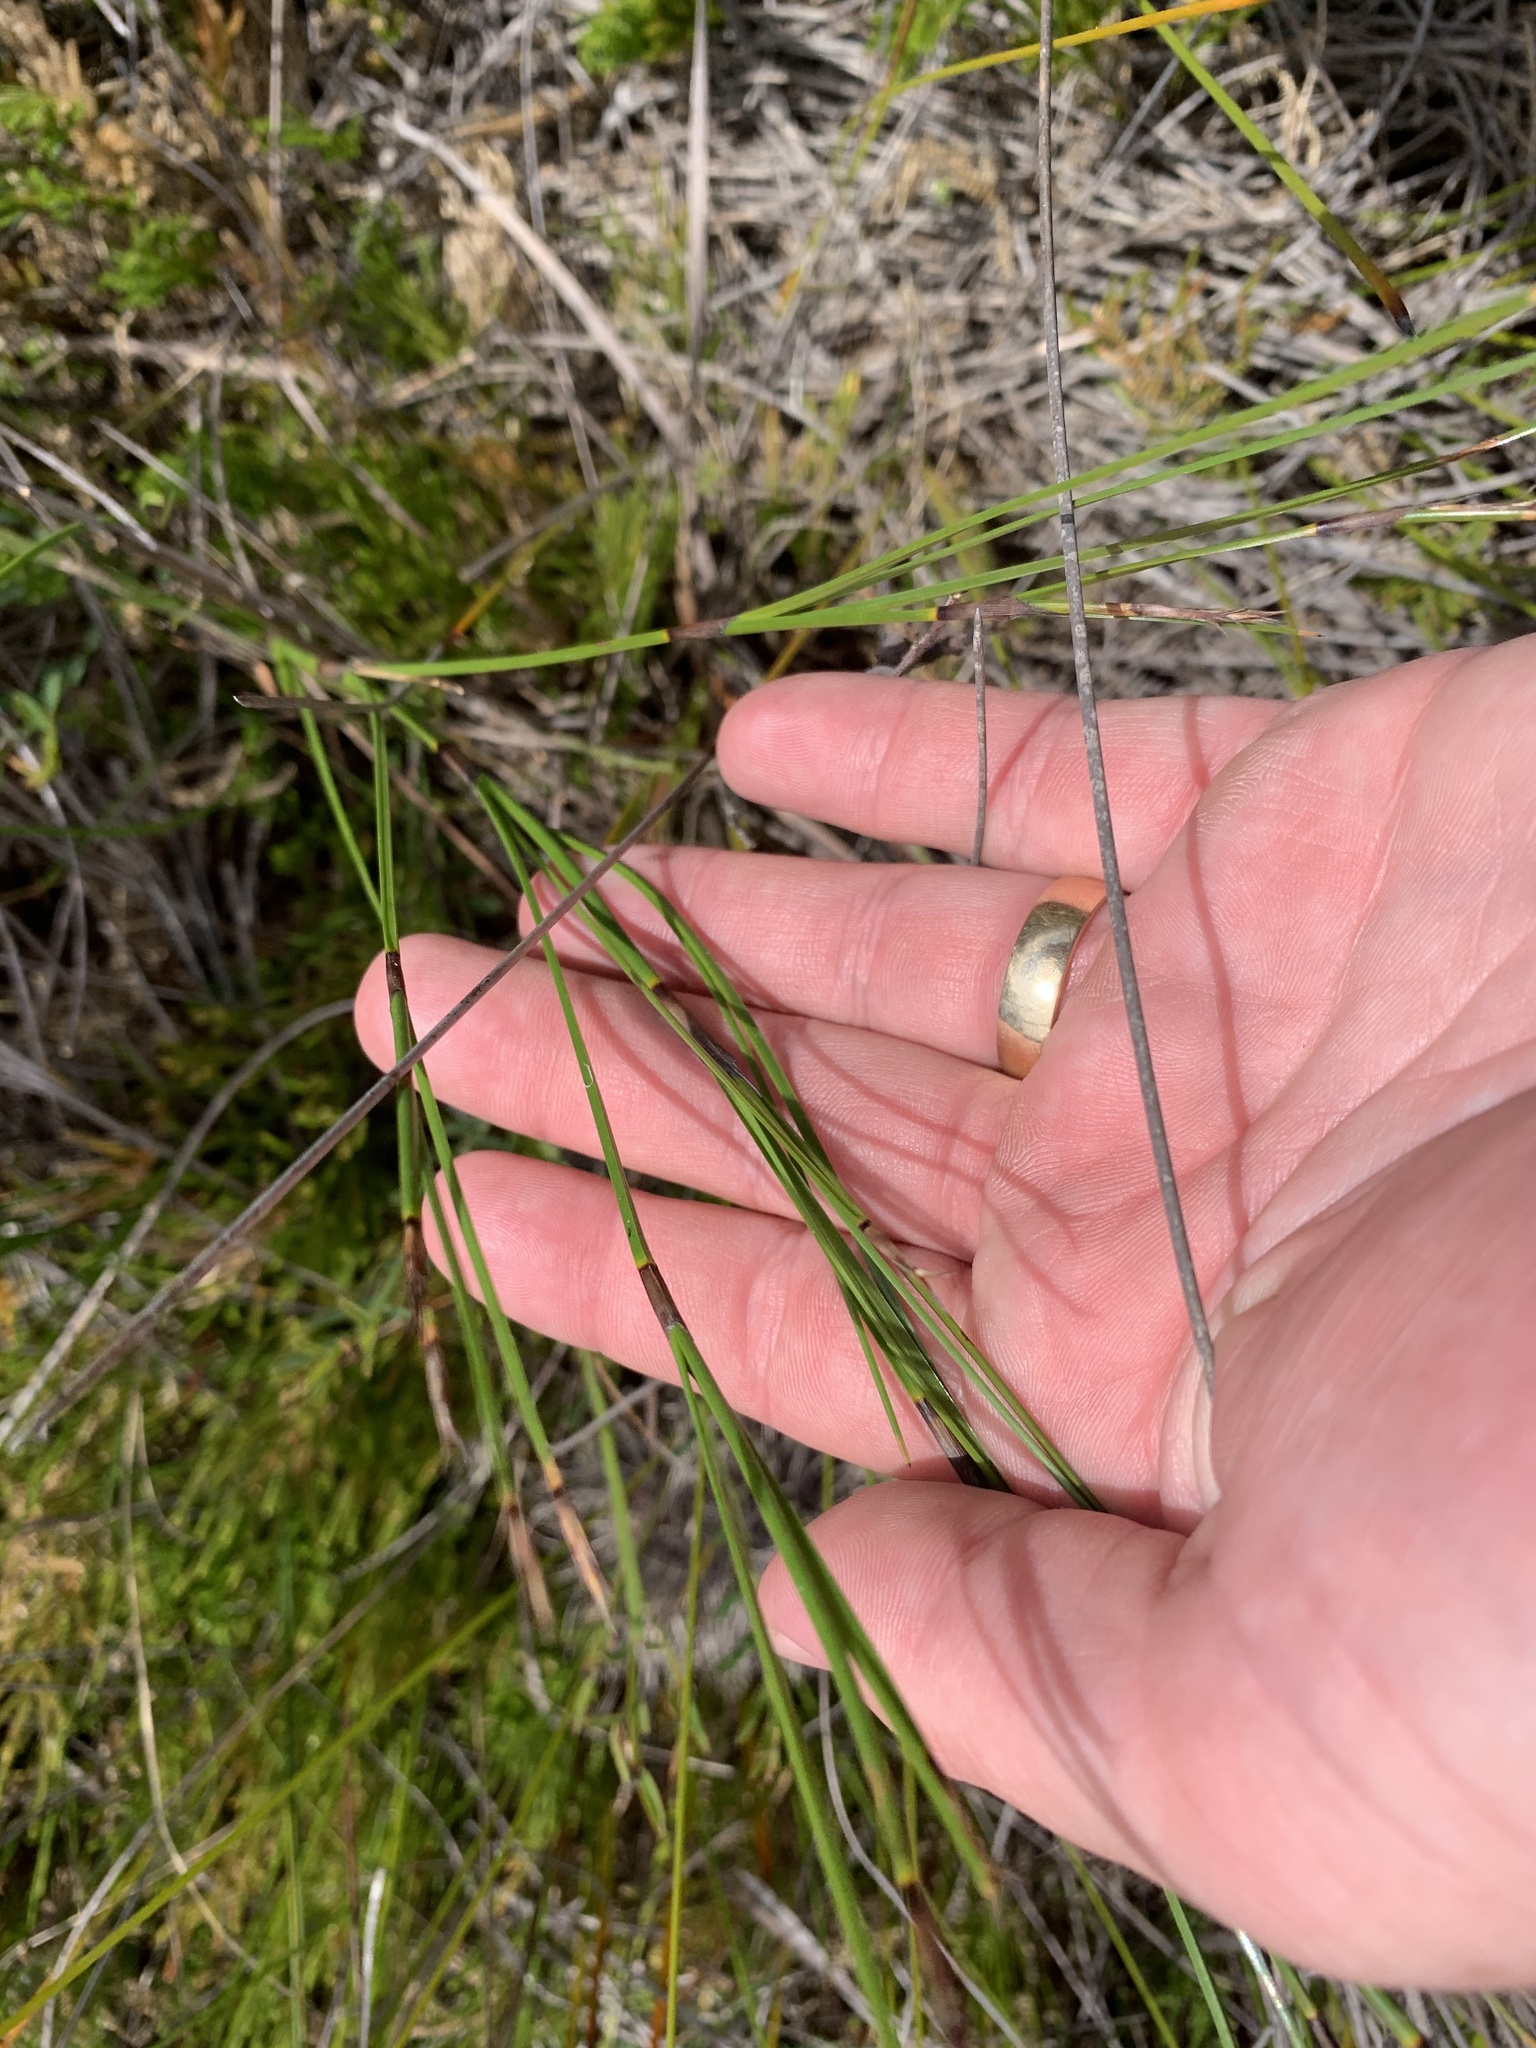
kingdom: Plantae
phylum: Tracheophyta
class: Liliopsida
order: Poales
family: Cyperaceae
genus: Caustis
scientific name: Caustis pentandra
